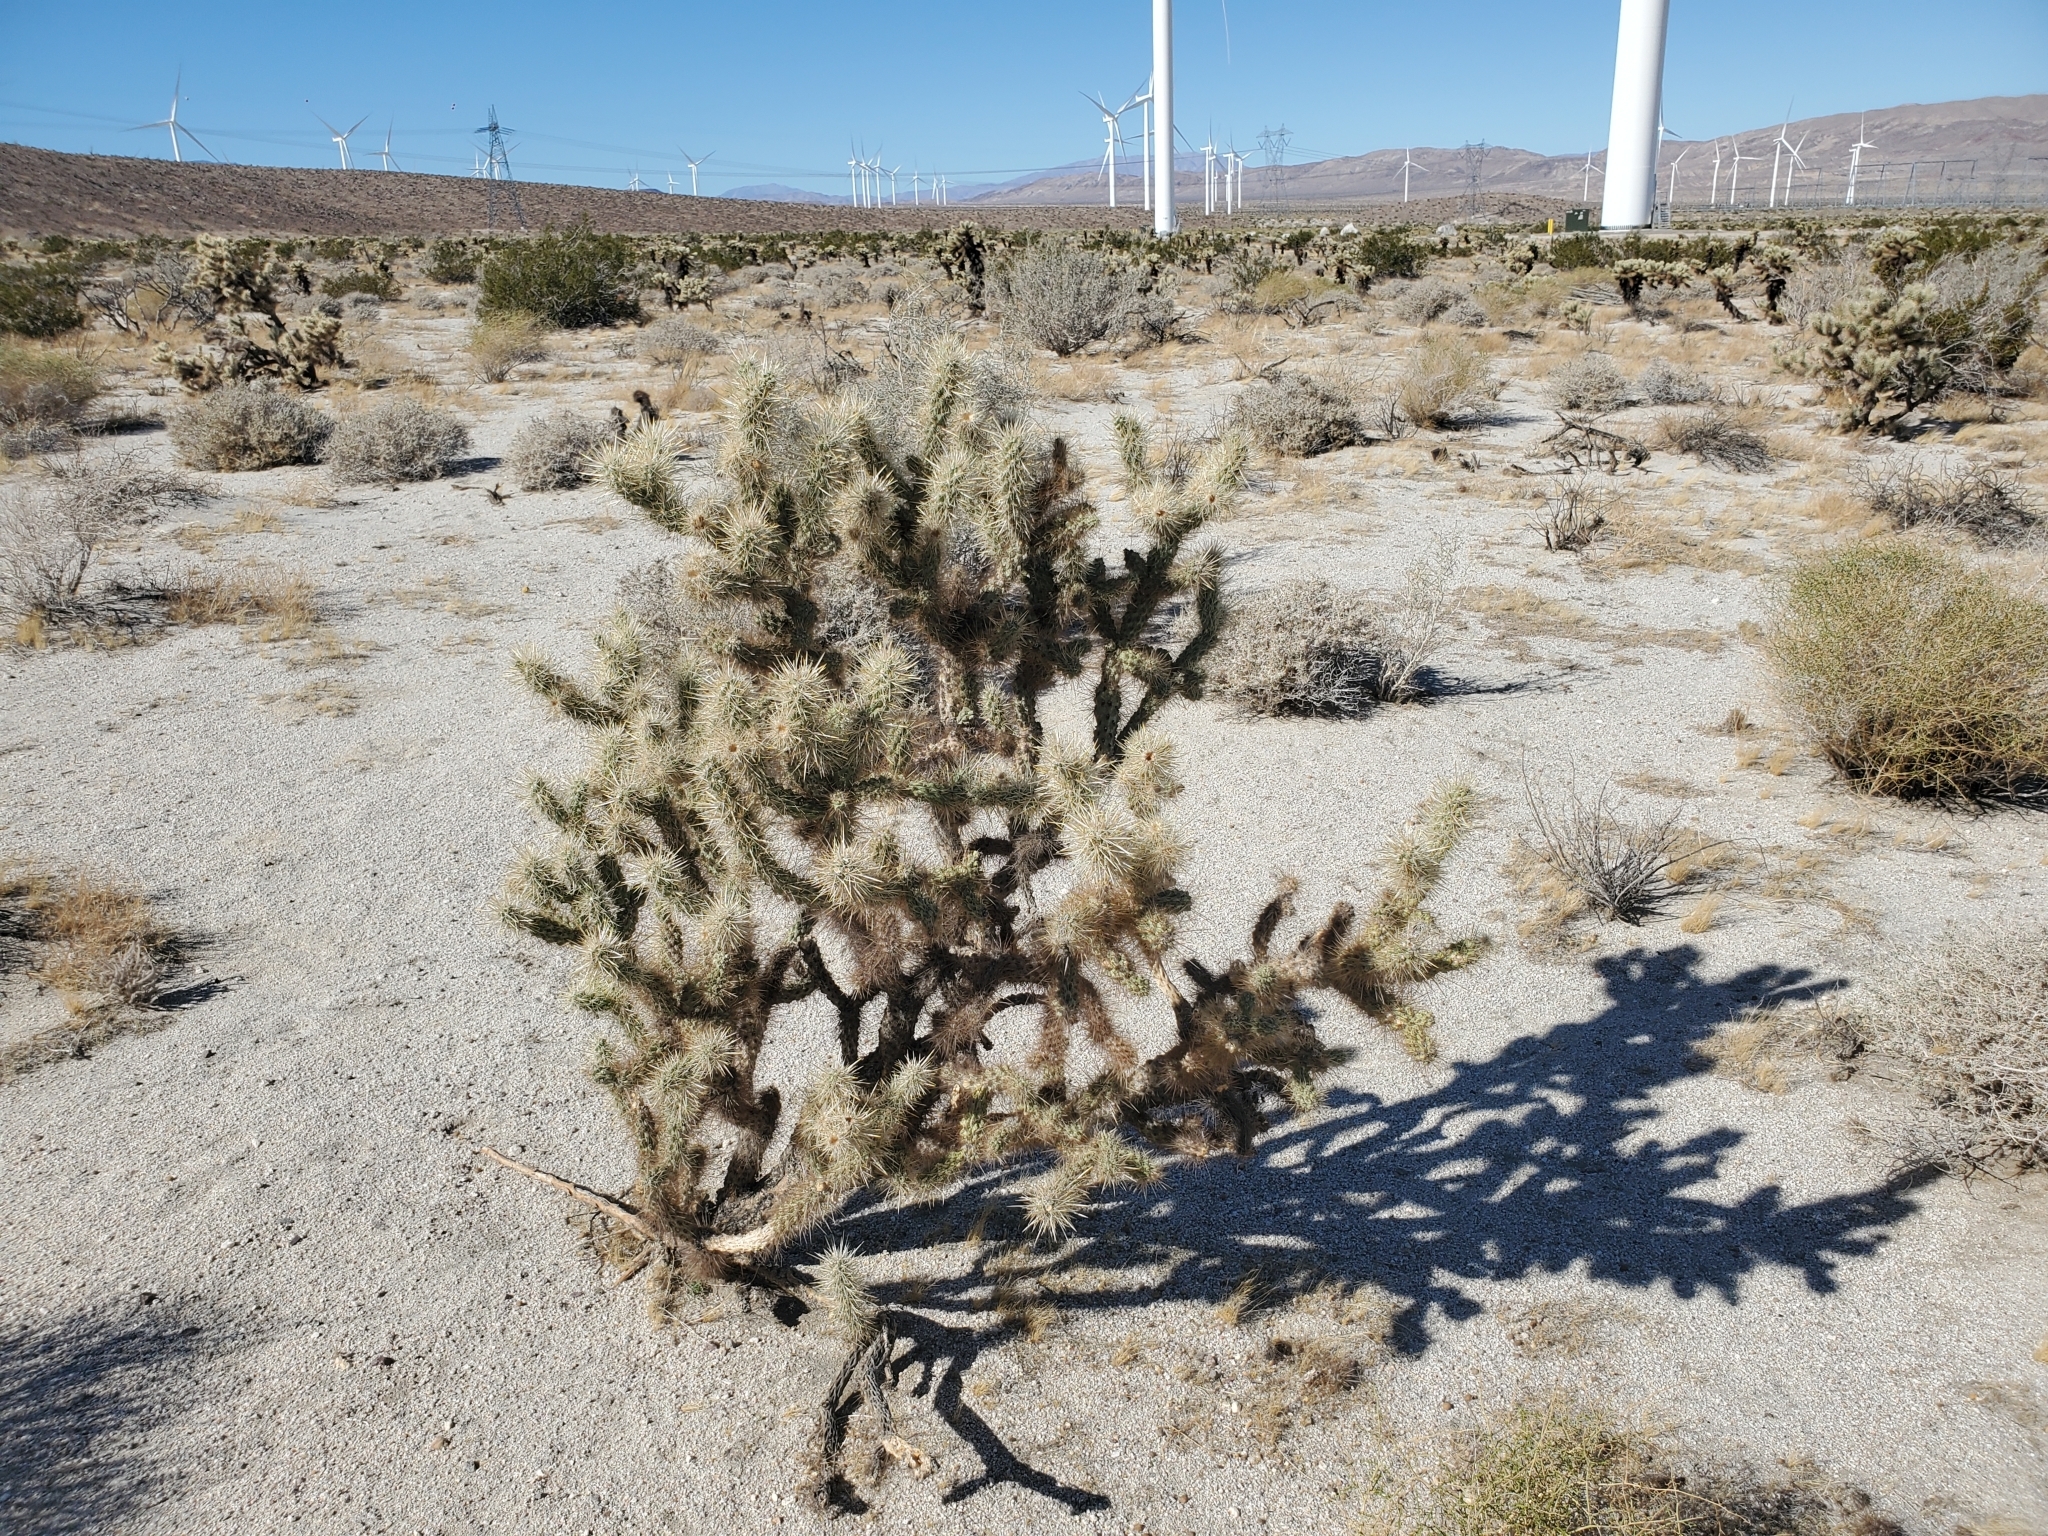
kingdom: Plantae
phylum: Tracheophyta
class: Magnoliopsida
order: Caryophyllales
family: Cactaceae
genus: Cylindropuntia
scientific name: Cylindropuntia echinocarpa
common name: Ground cholla
